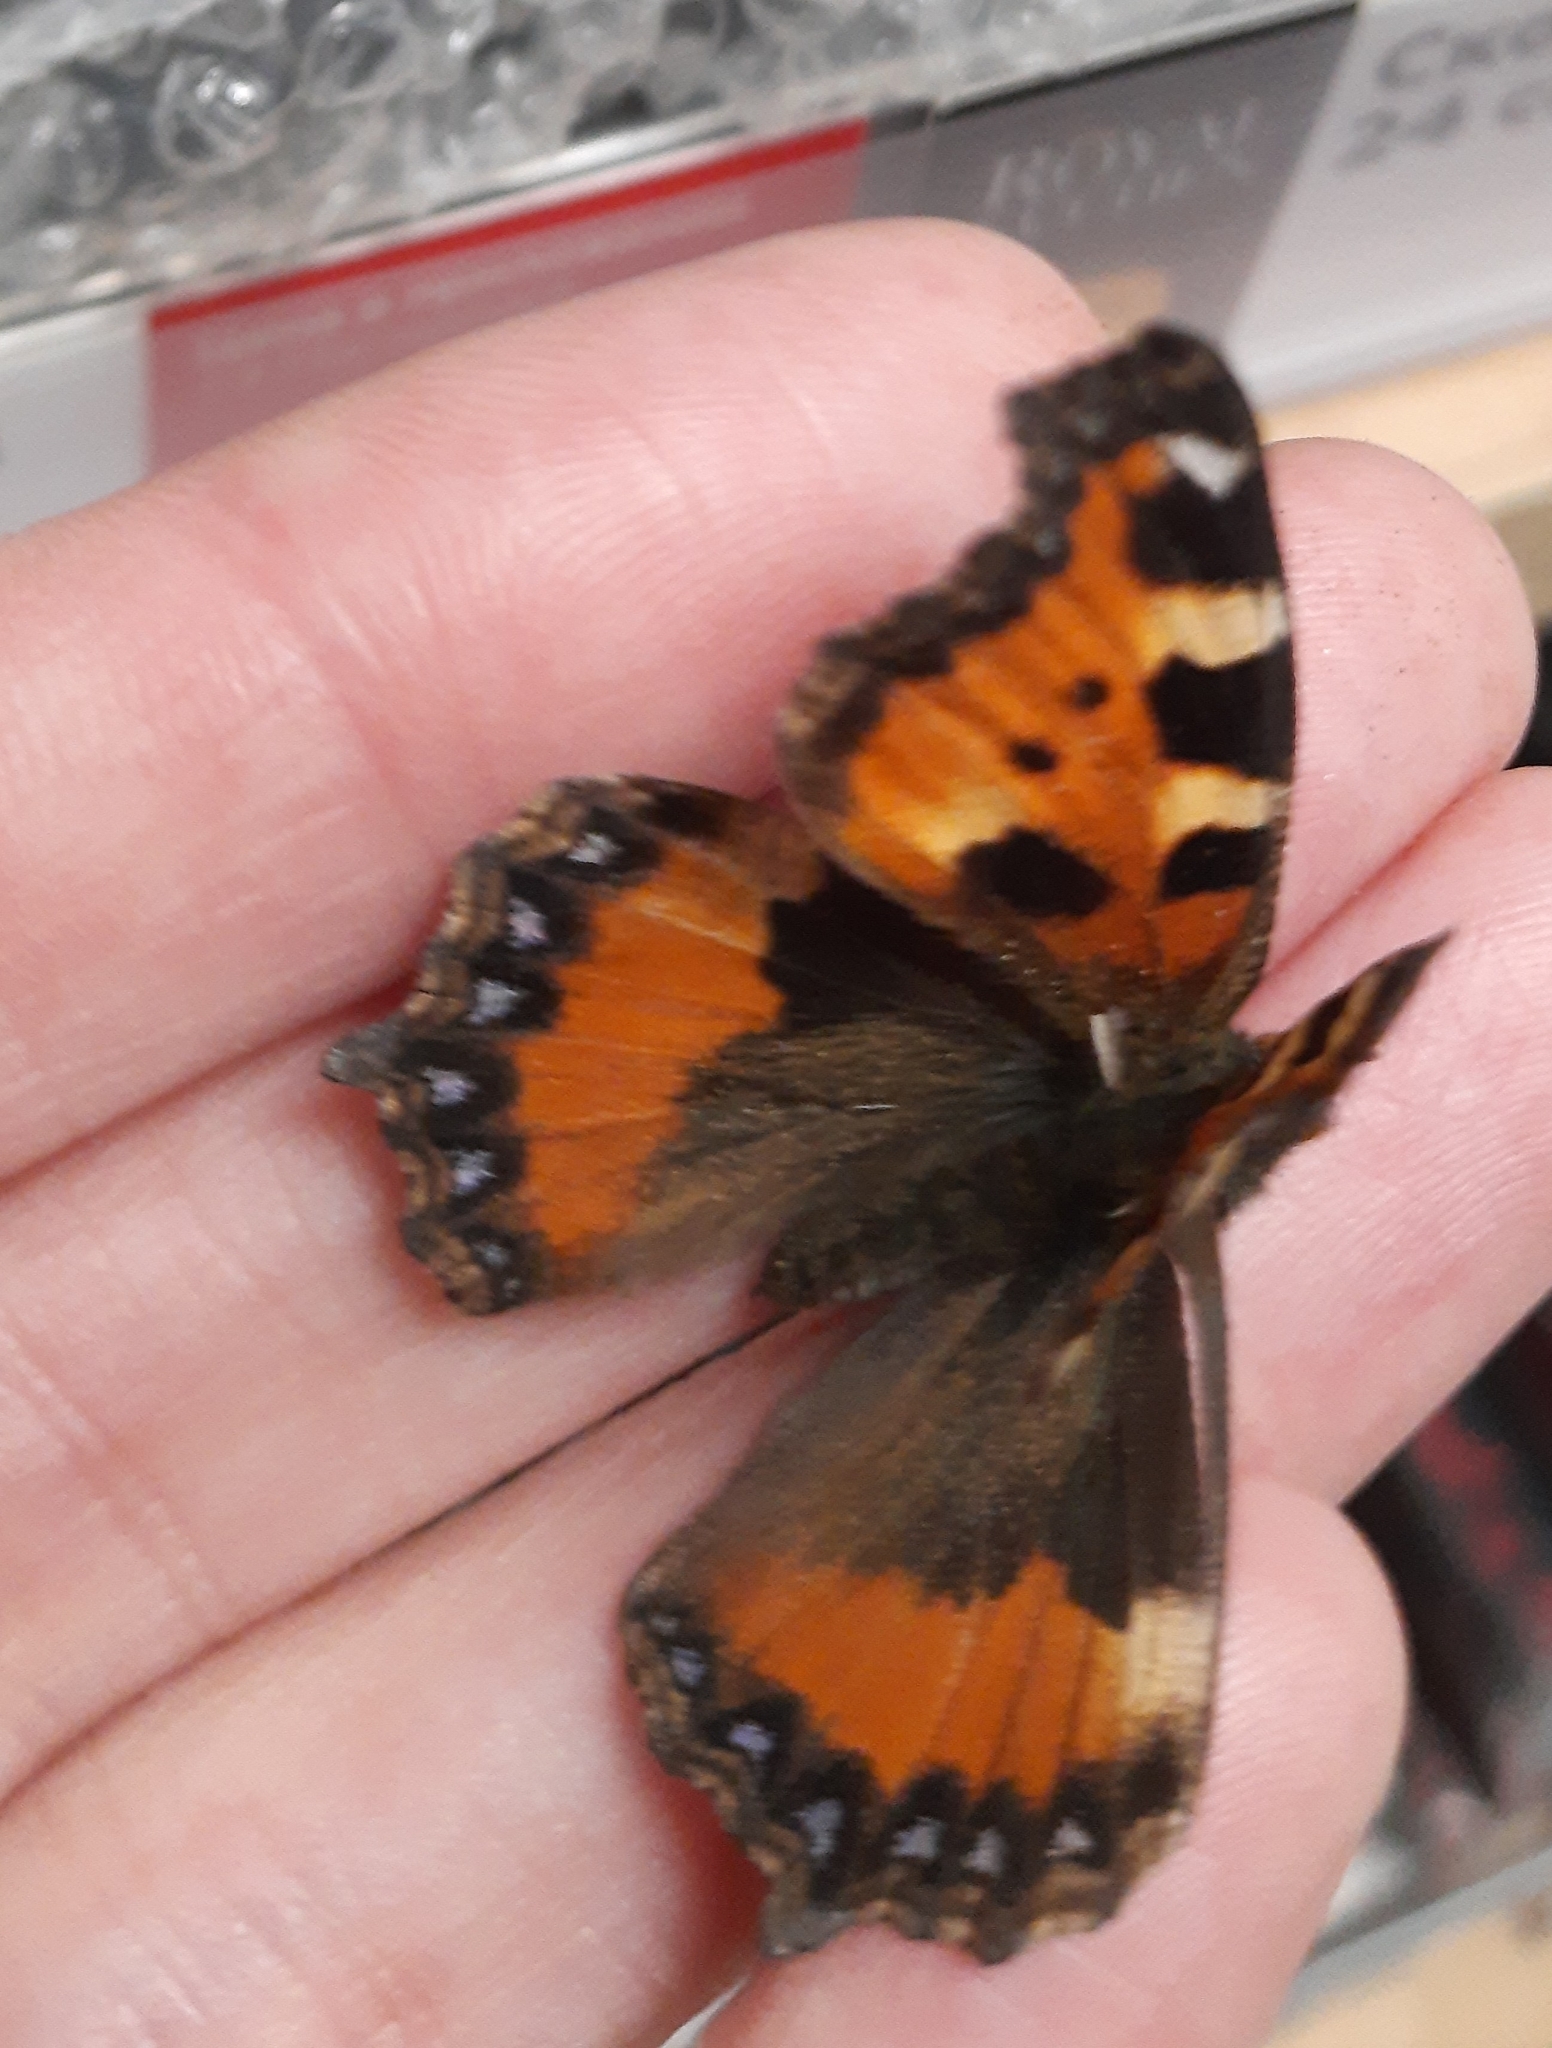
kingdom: Animalia
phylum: Arthropoda
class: Insecta
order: Lepidoptera
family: Nymphalidae
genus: Aglais
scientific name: Aglais urticae
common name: Small tortoiseshell
